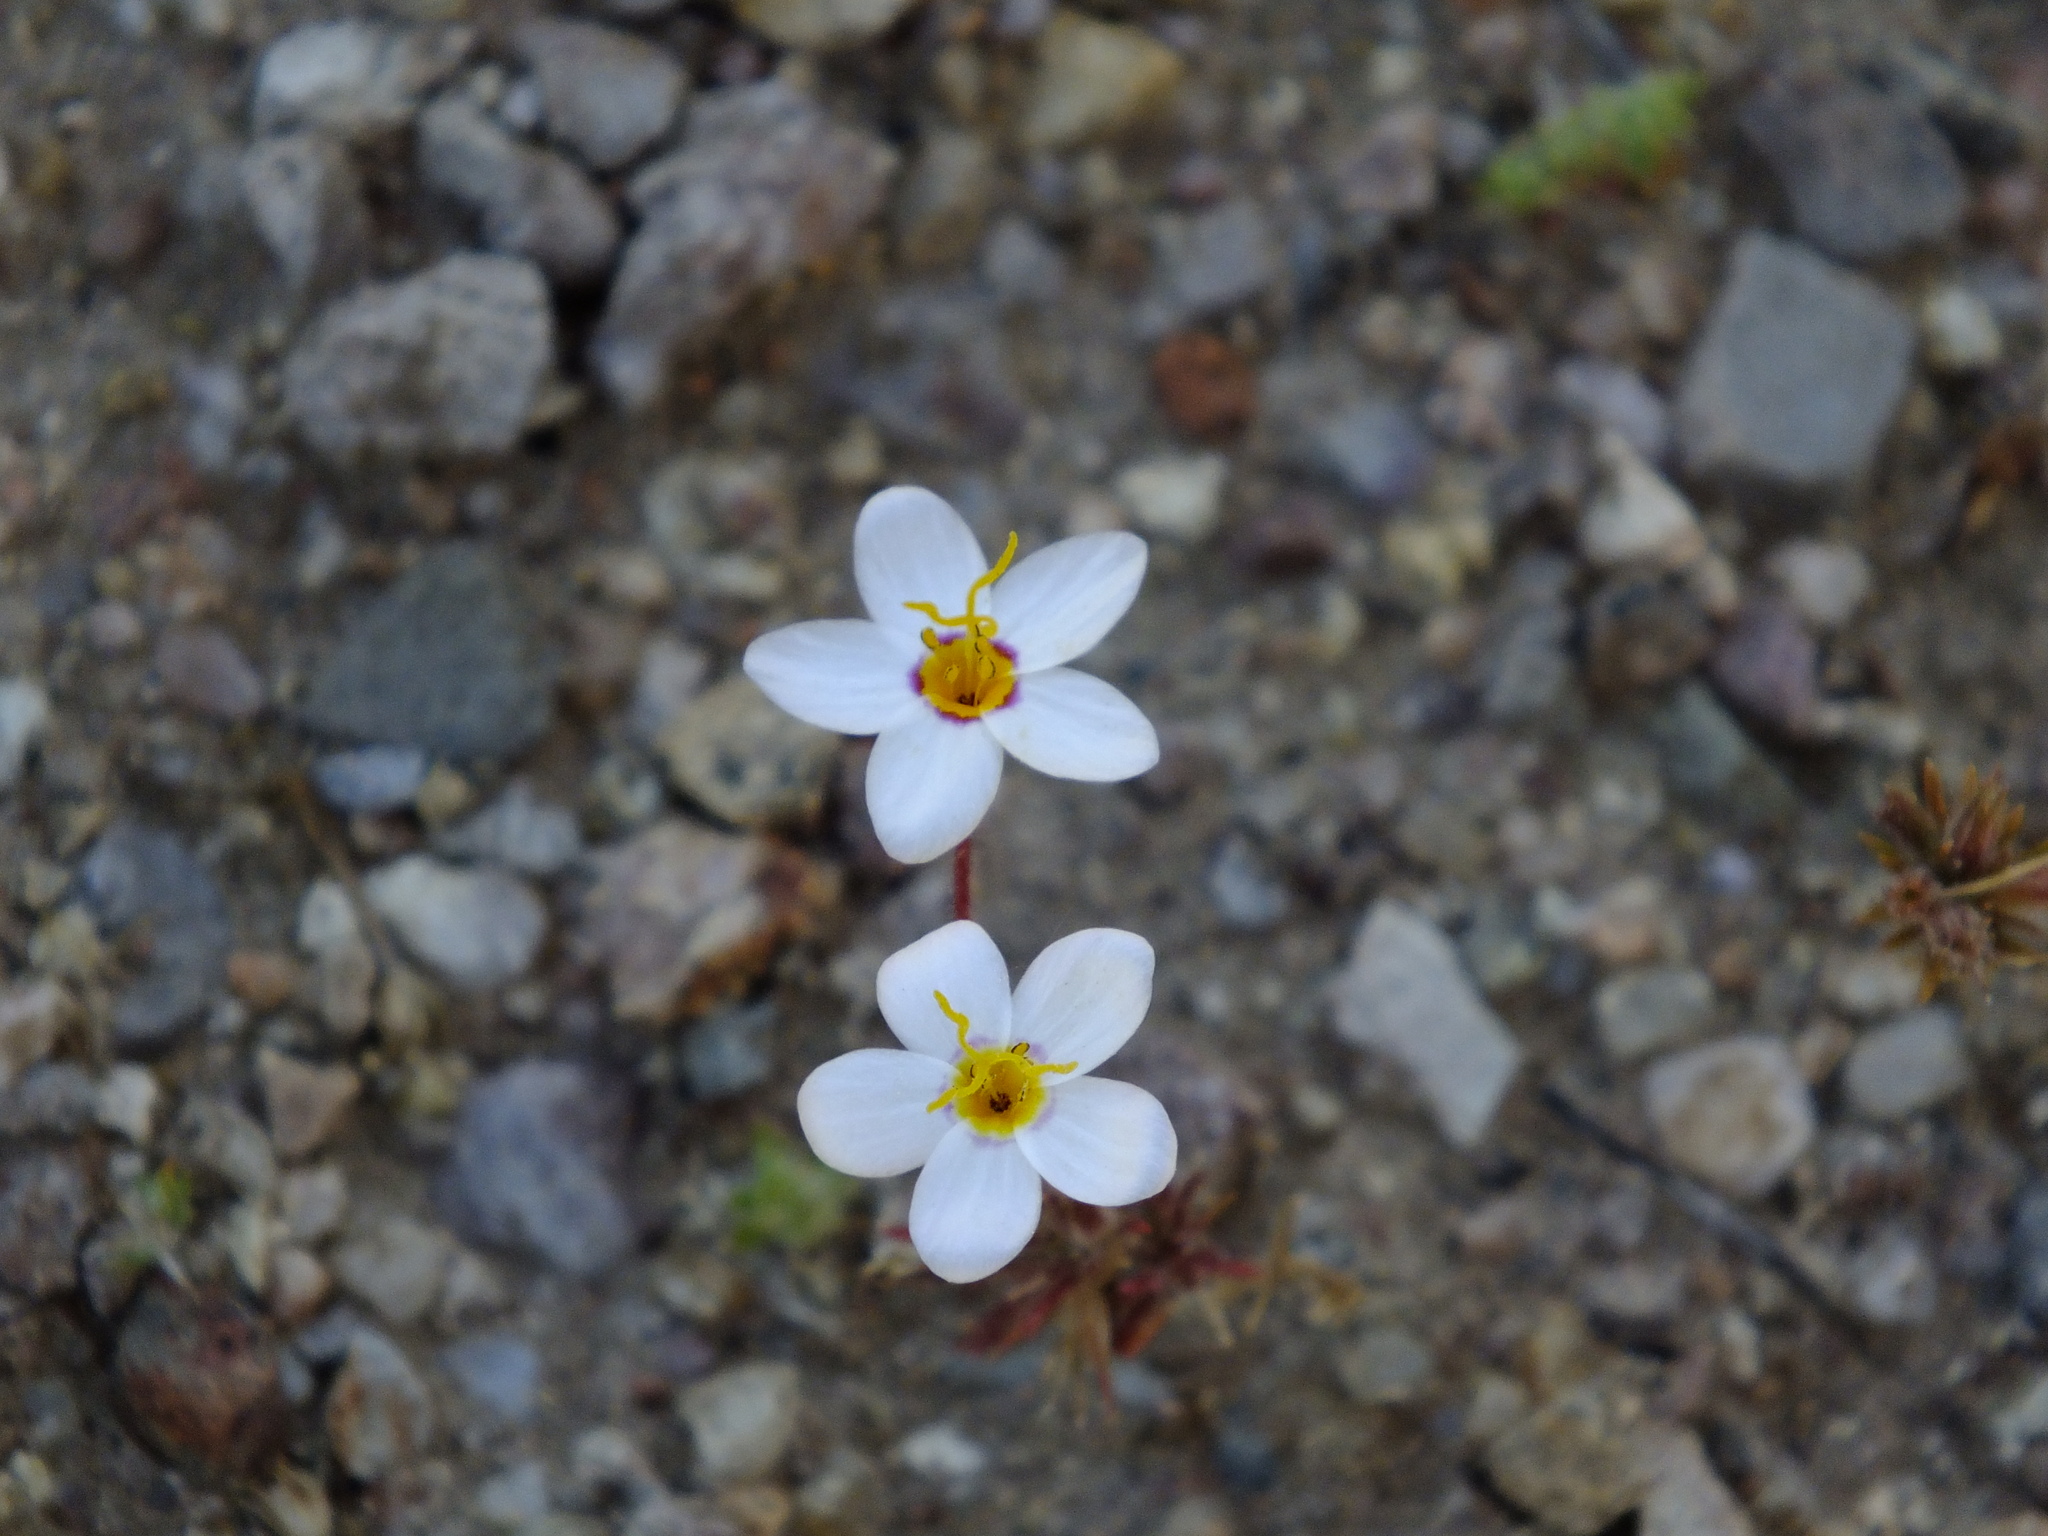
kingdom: Plantae
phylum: Tracheophyta
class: Magnoliopsida
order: Ericales
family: Polemoniaceae
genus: Leptosiphon
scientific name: Leptosiphon parviflorus
